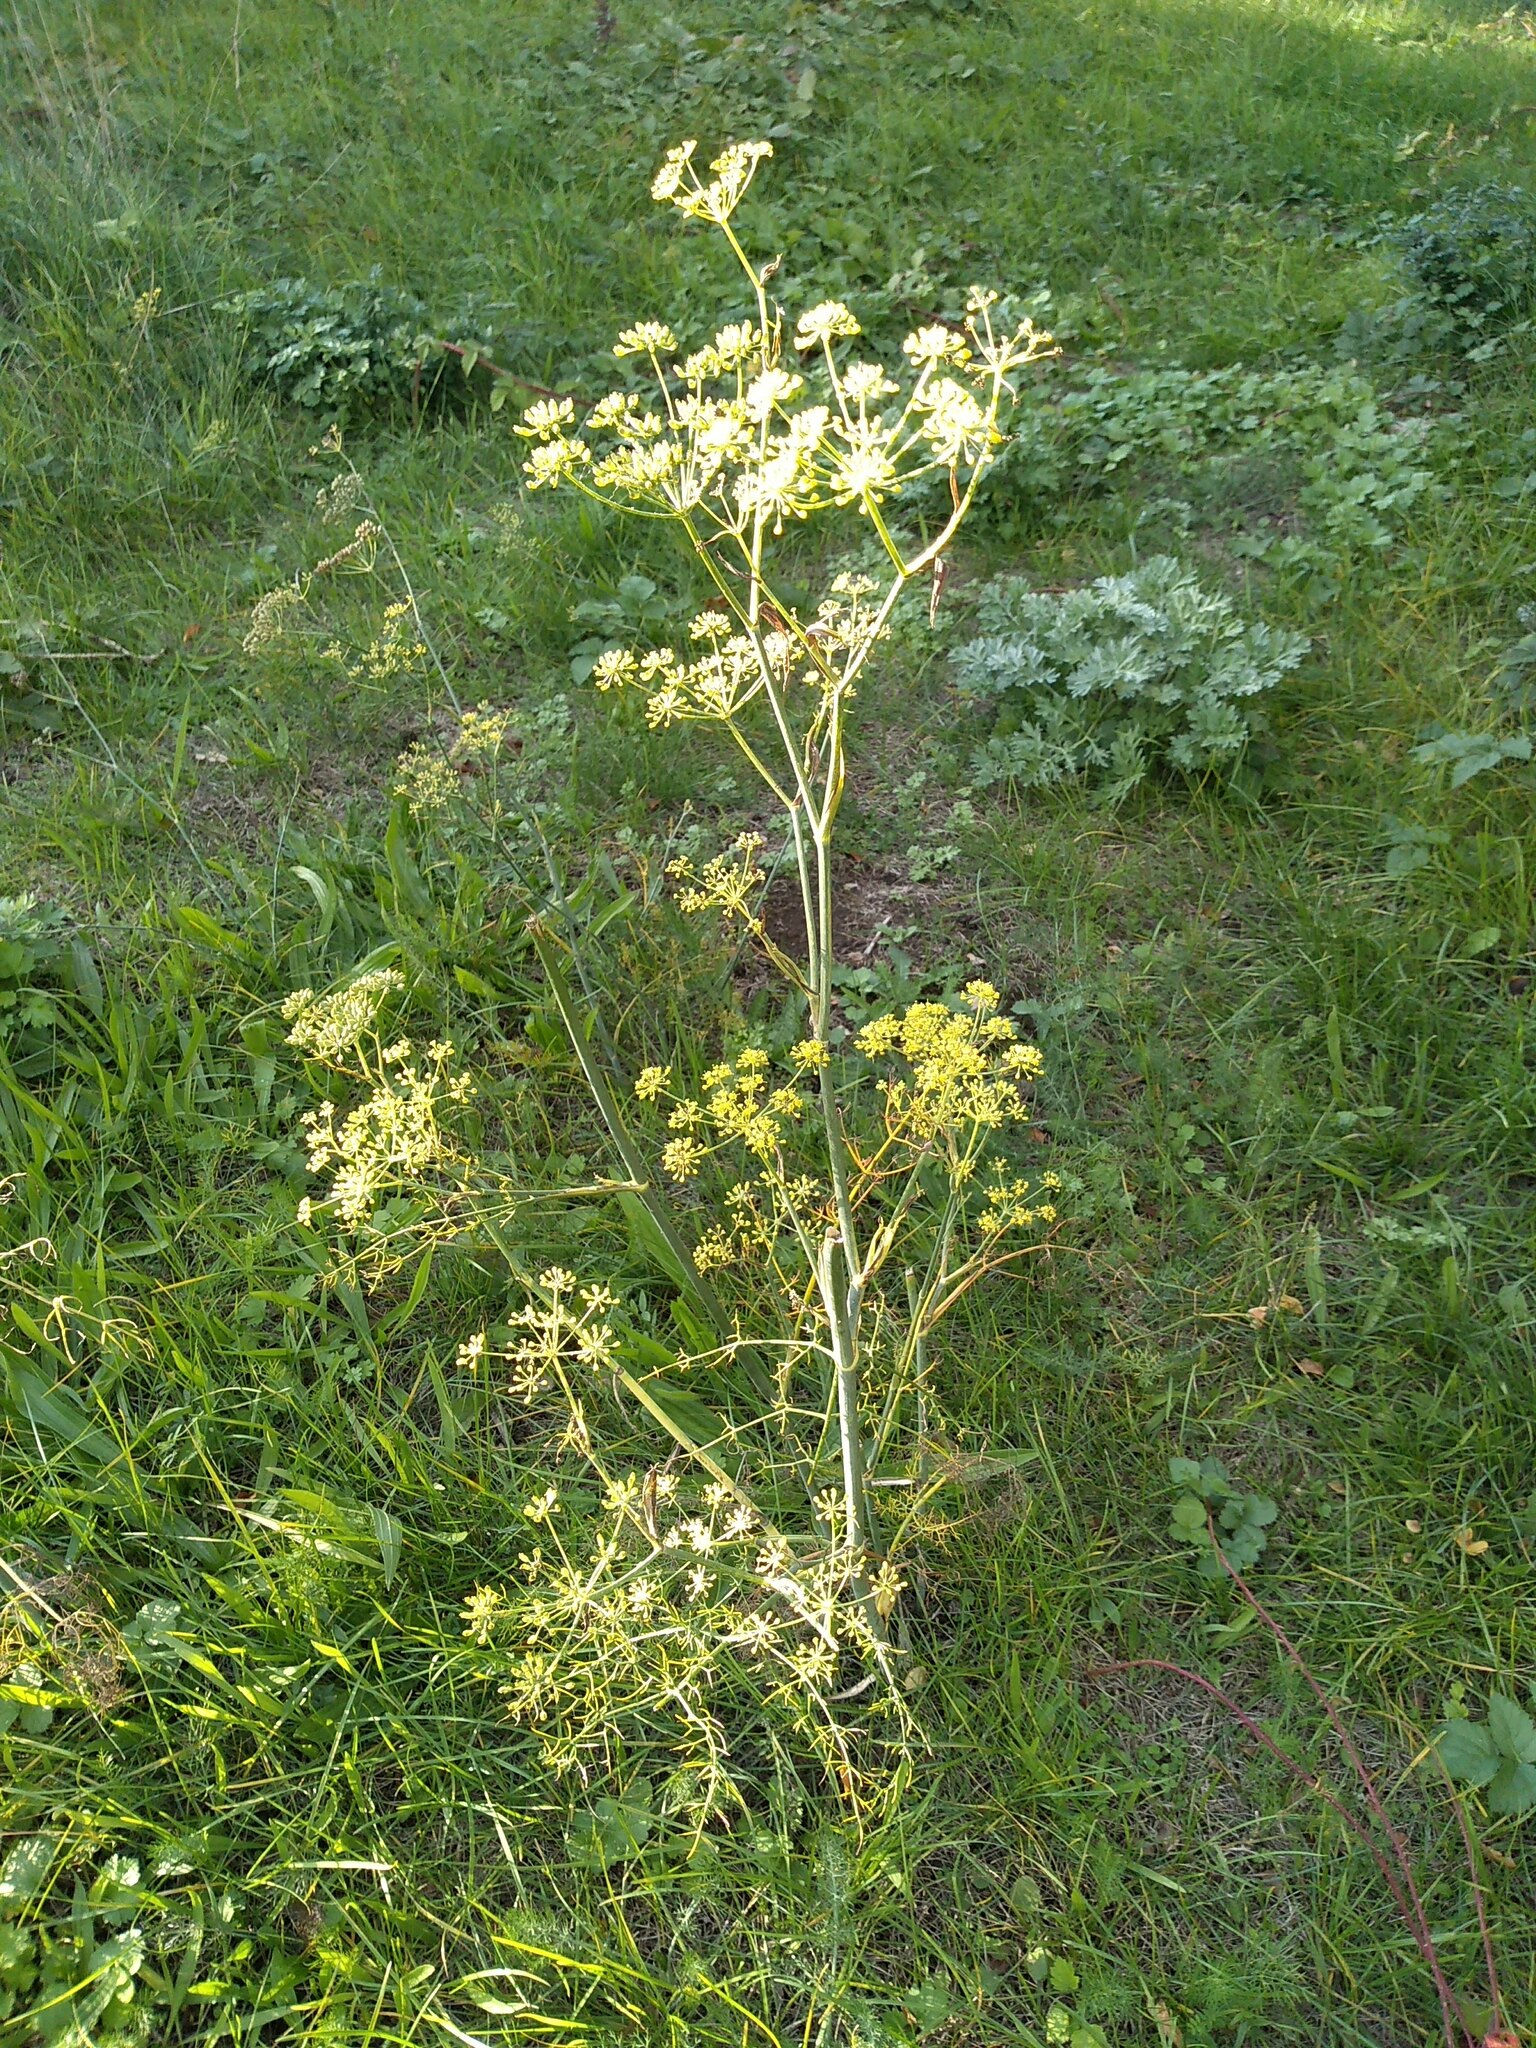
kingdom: Plantae
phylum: Tracheophyta
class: Magnoliopsida
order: Apiales
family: Apiaceae
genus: Foeniculum
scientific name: Foeniculum vulgare
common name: Fennel
